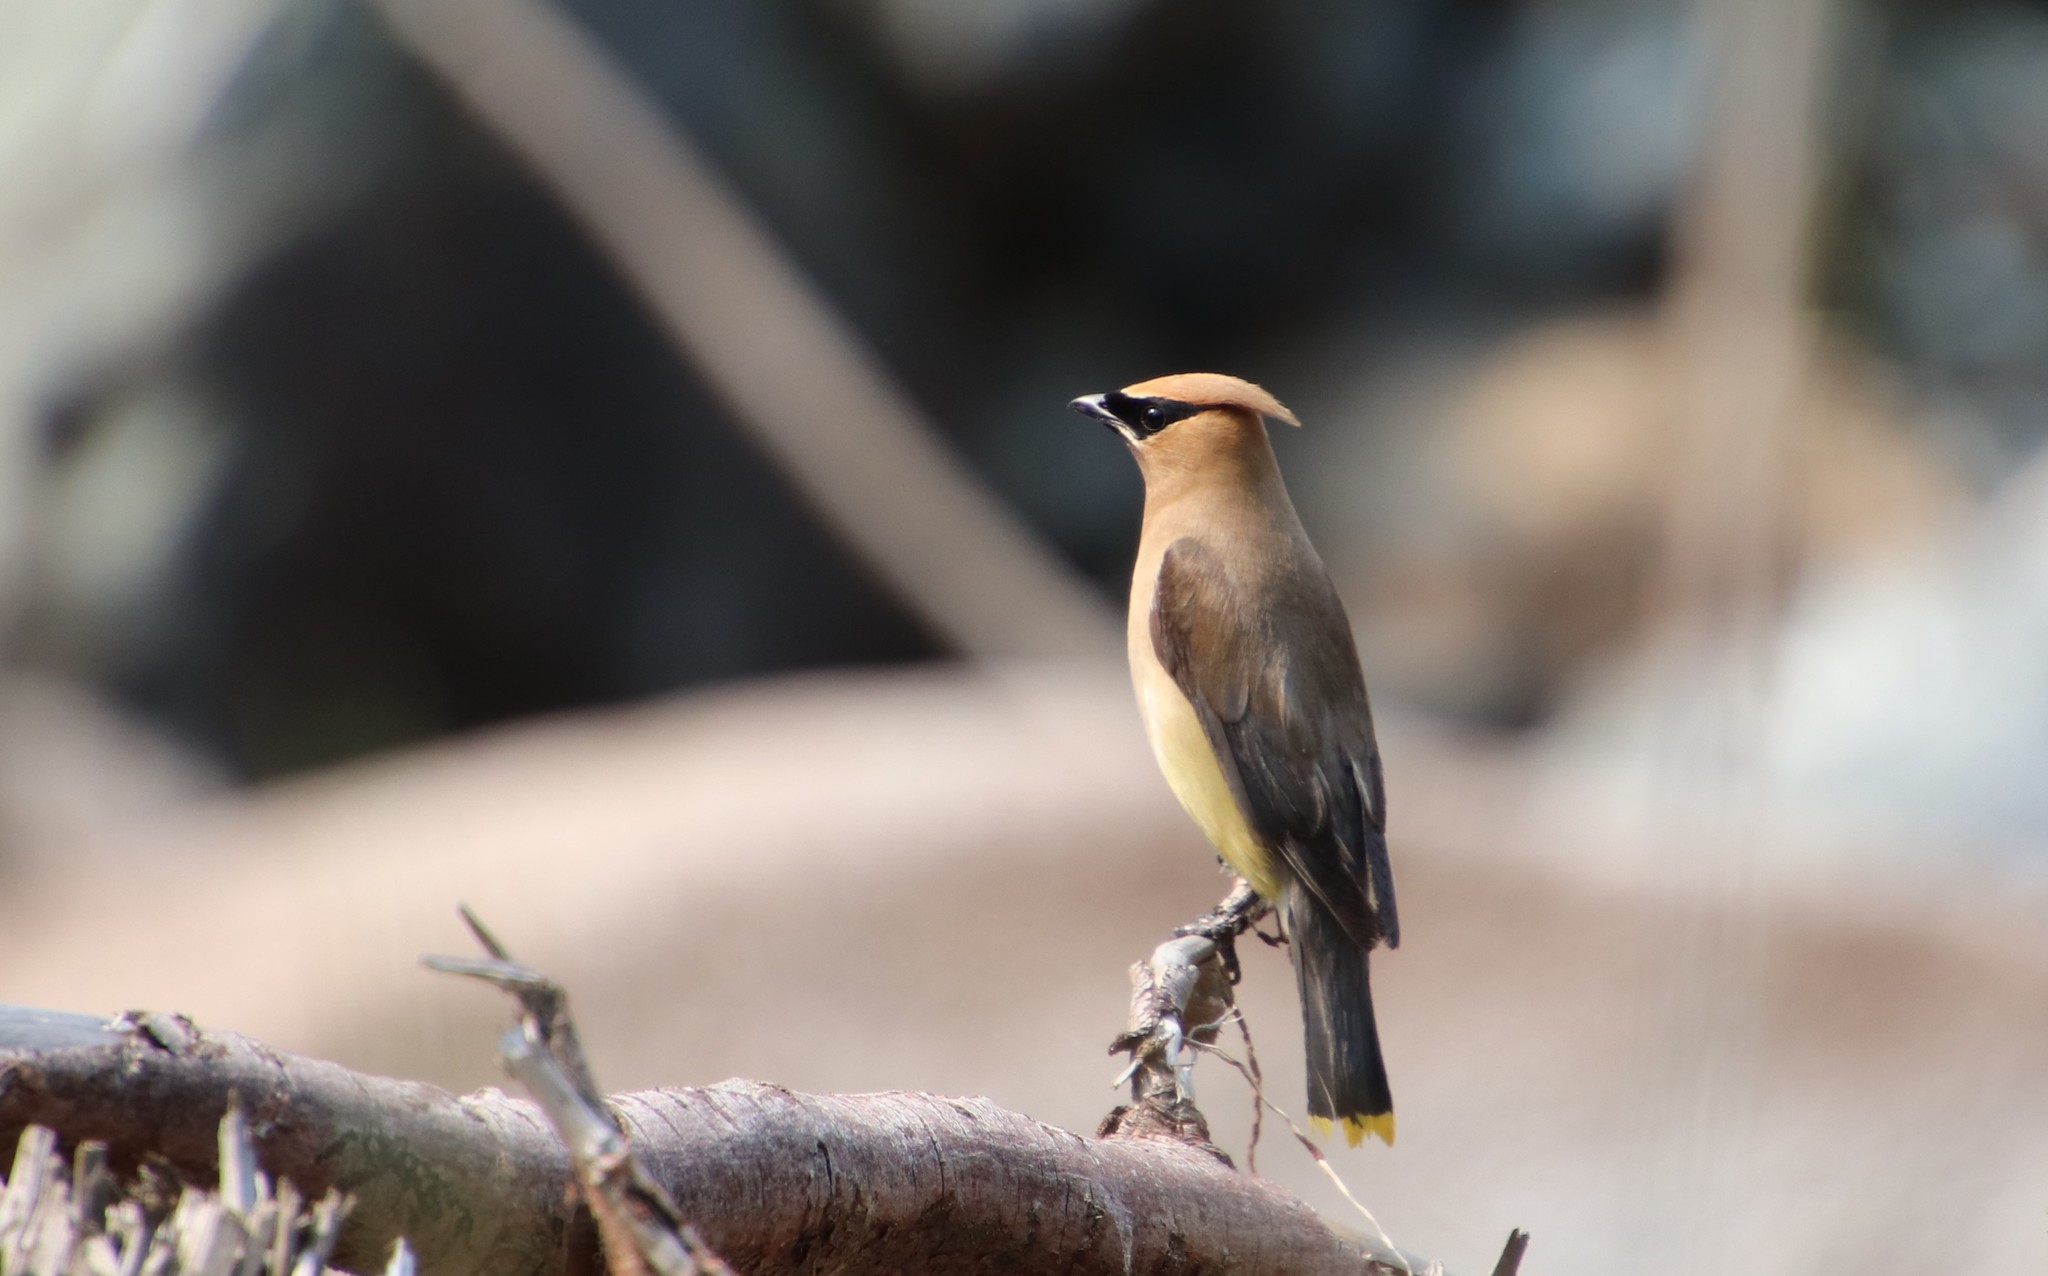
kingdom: Animalia
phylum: Chordata
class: Aves
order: Passeriformes
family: Bombycillidae
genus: Bombycilla
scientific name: Bombycilla cedrorum
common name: Cedar waxwing
